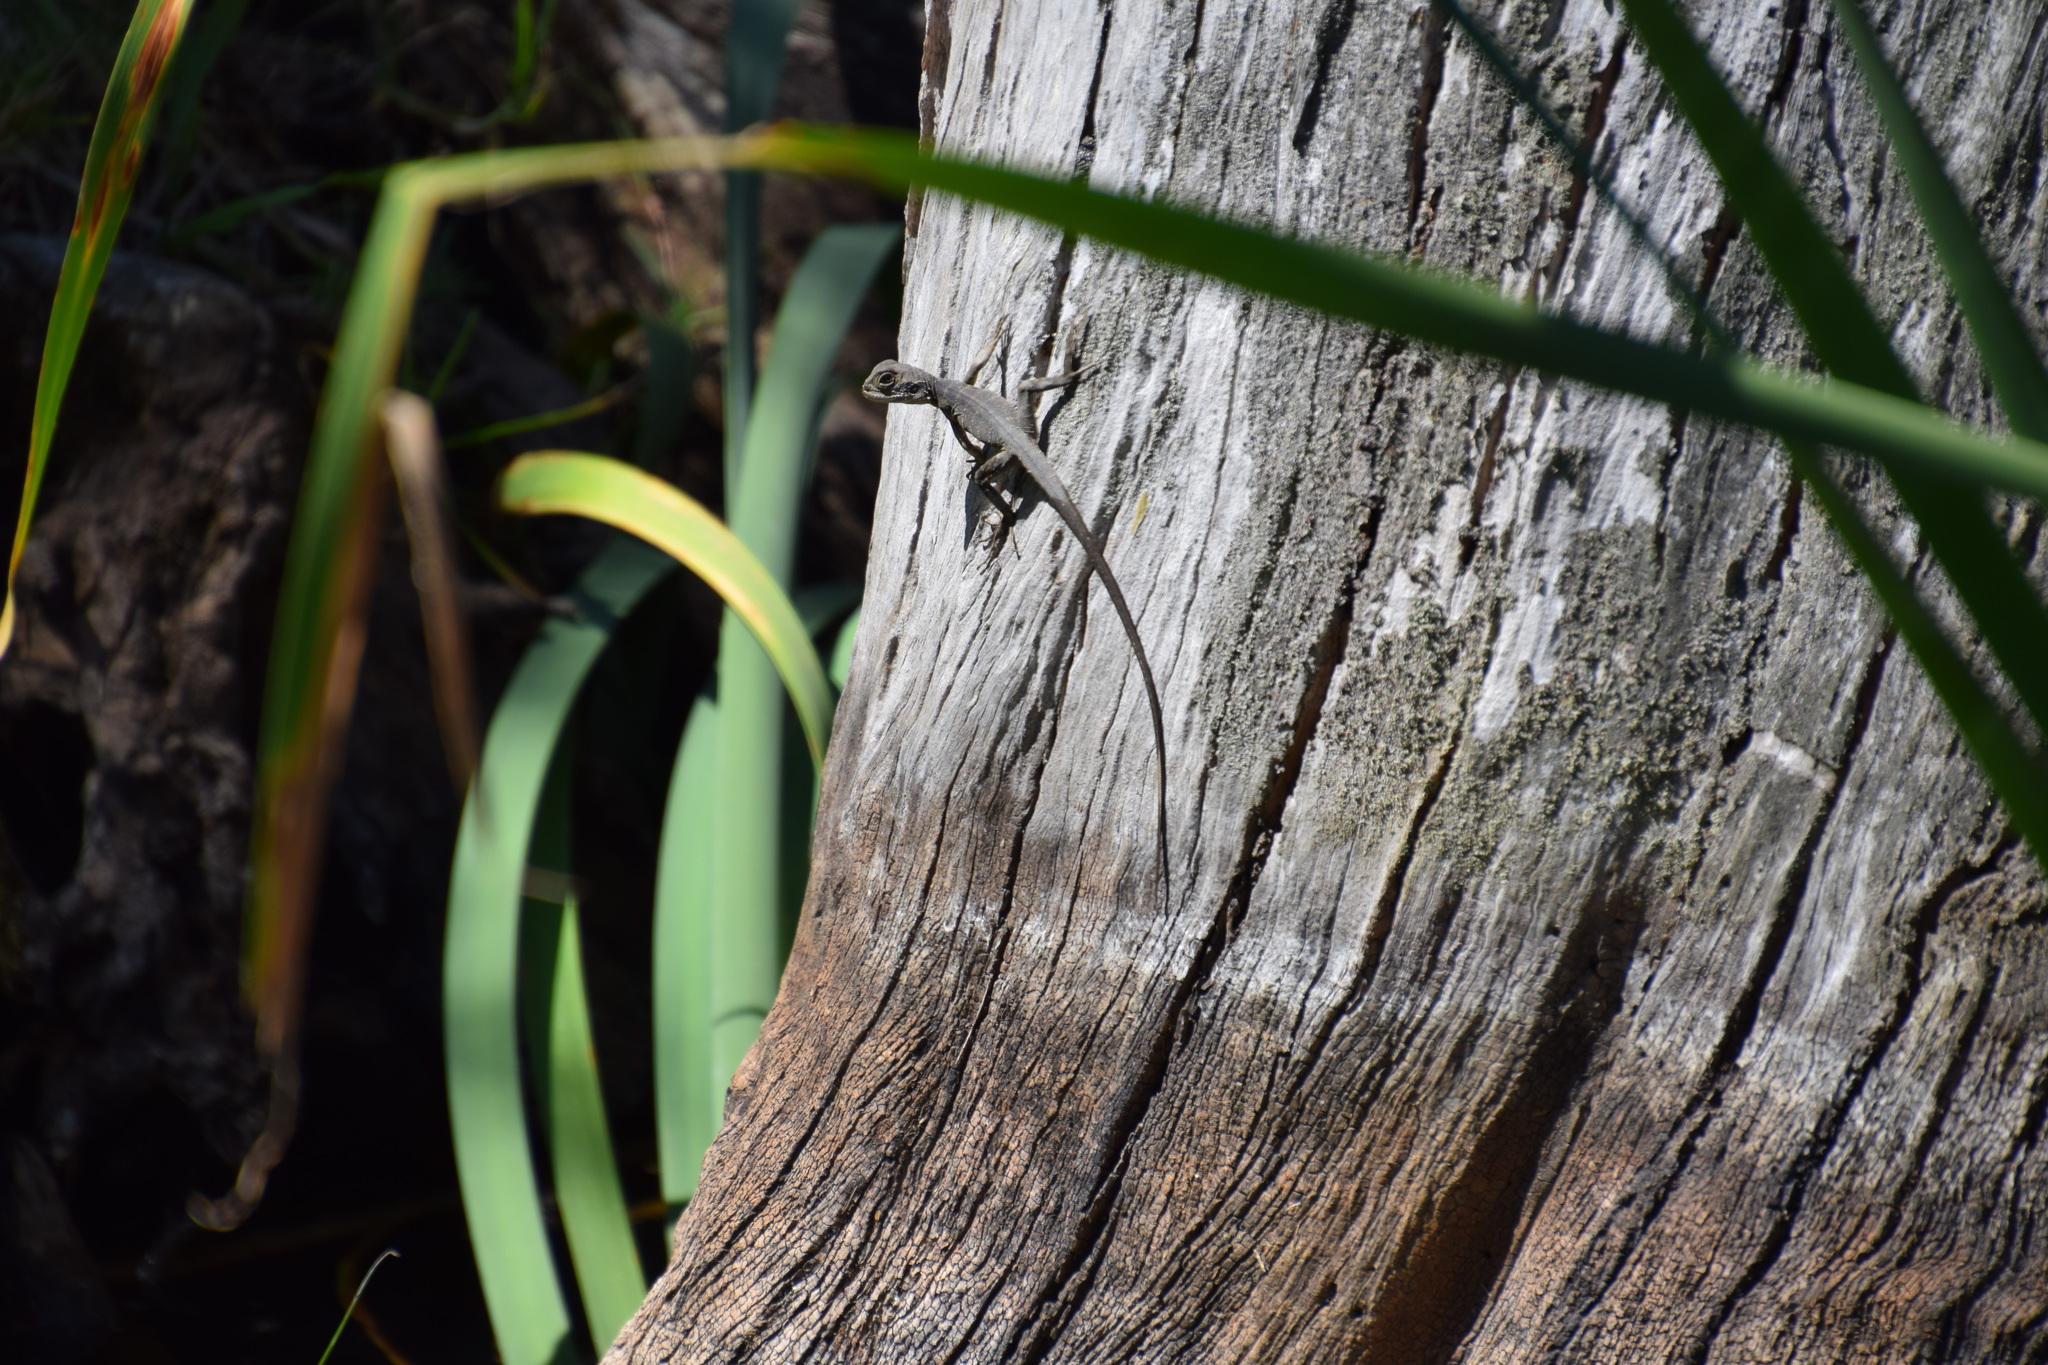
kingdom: Animalia
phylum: Chordata
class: Squamata
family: Agamidae
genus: Intellagama
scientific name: Intellagama lesueurii
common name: Eastern water dragon
